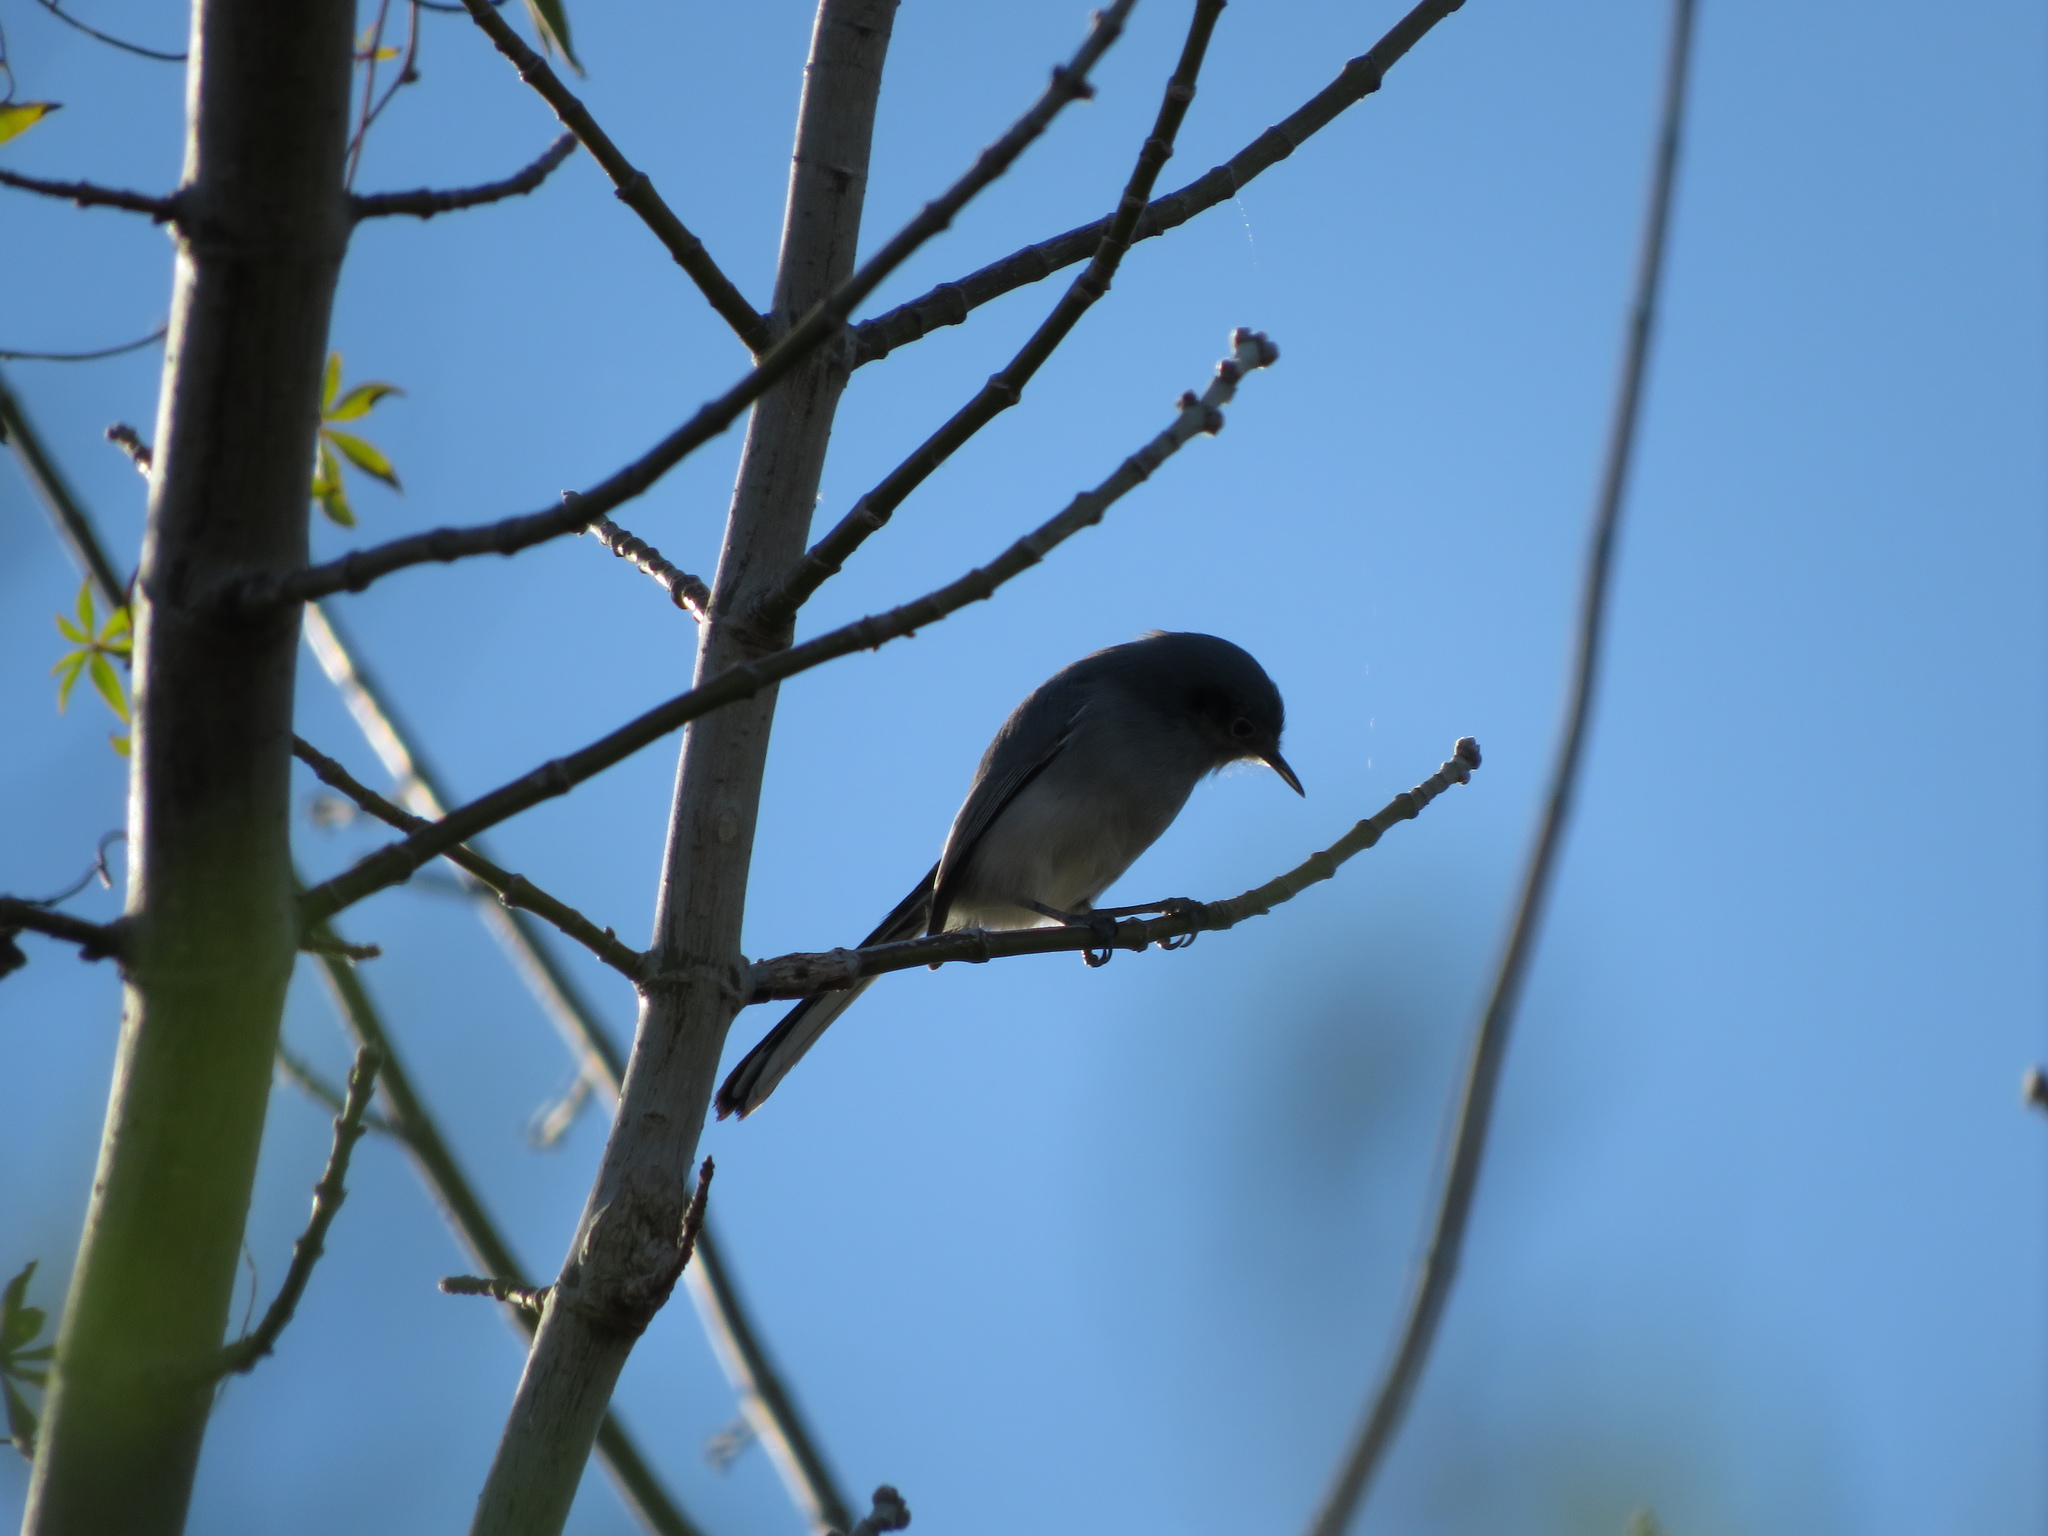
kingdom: Animalia
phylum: Chordata
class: Aves
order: Passeriformes
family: Polioptilidae
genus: Polioptila
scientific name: Polioptila dumicola
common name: Masked gnatcatcher
